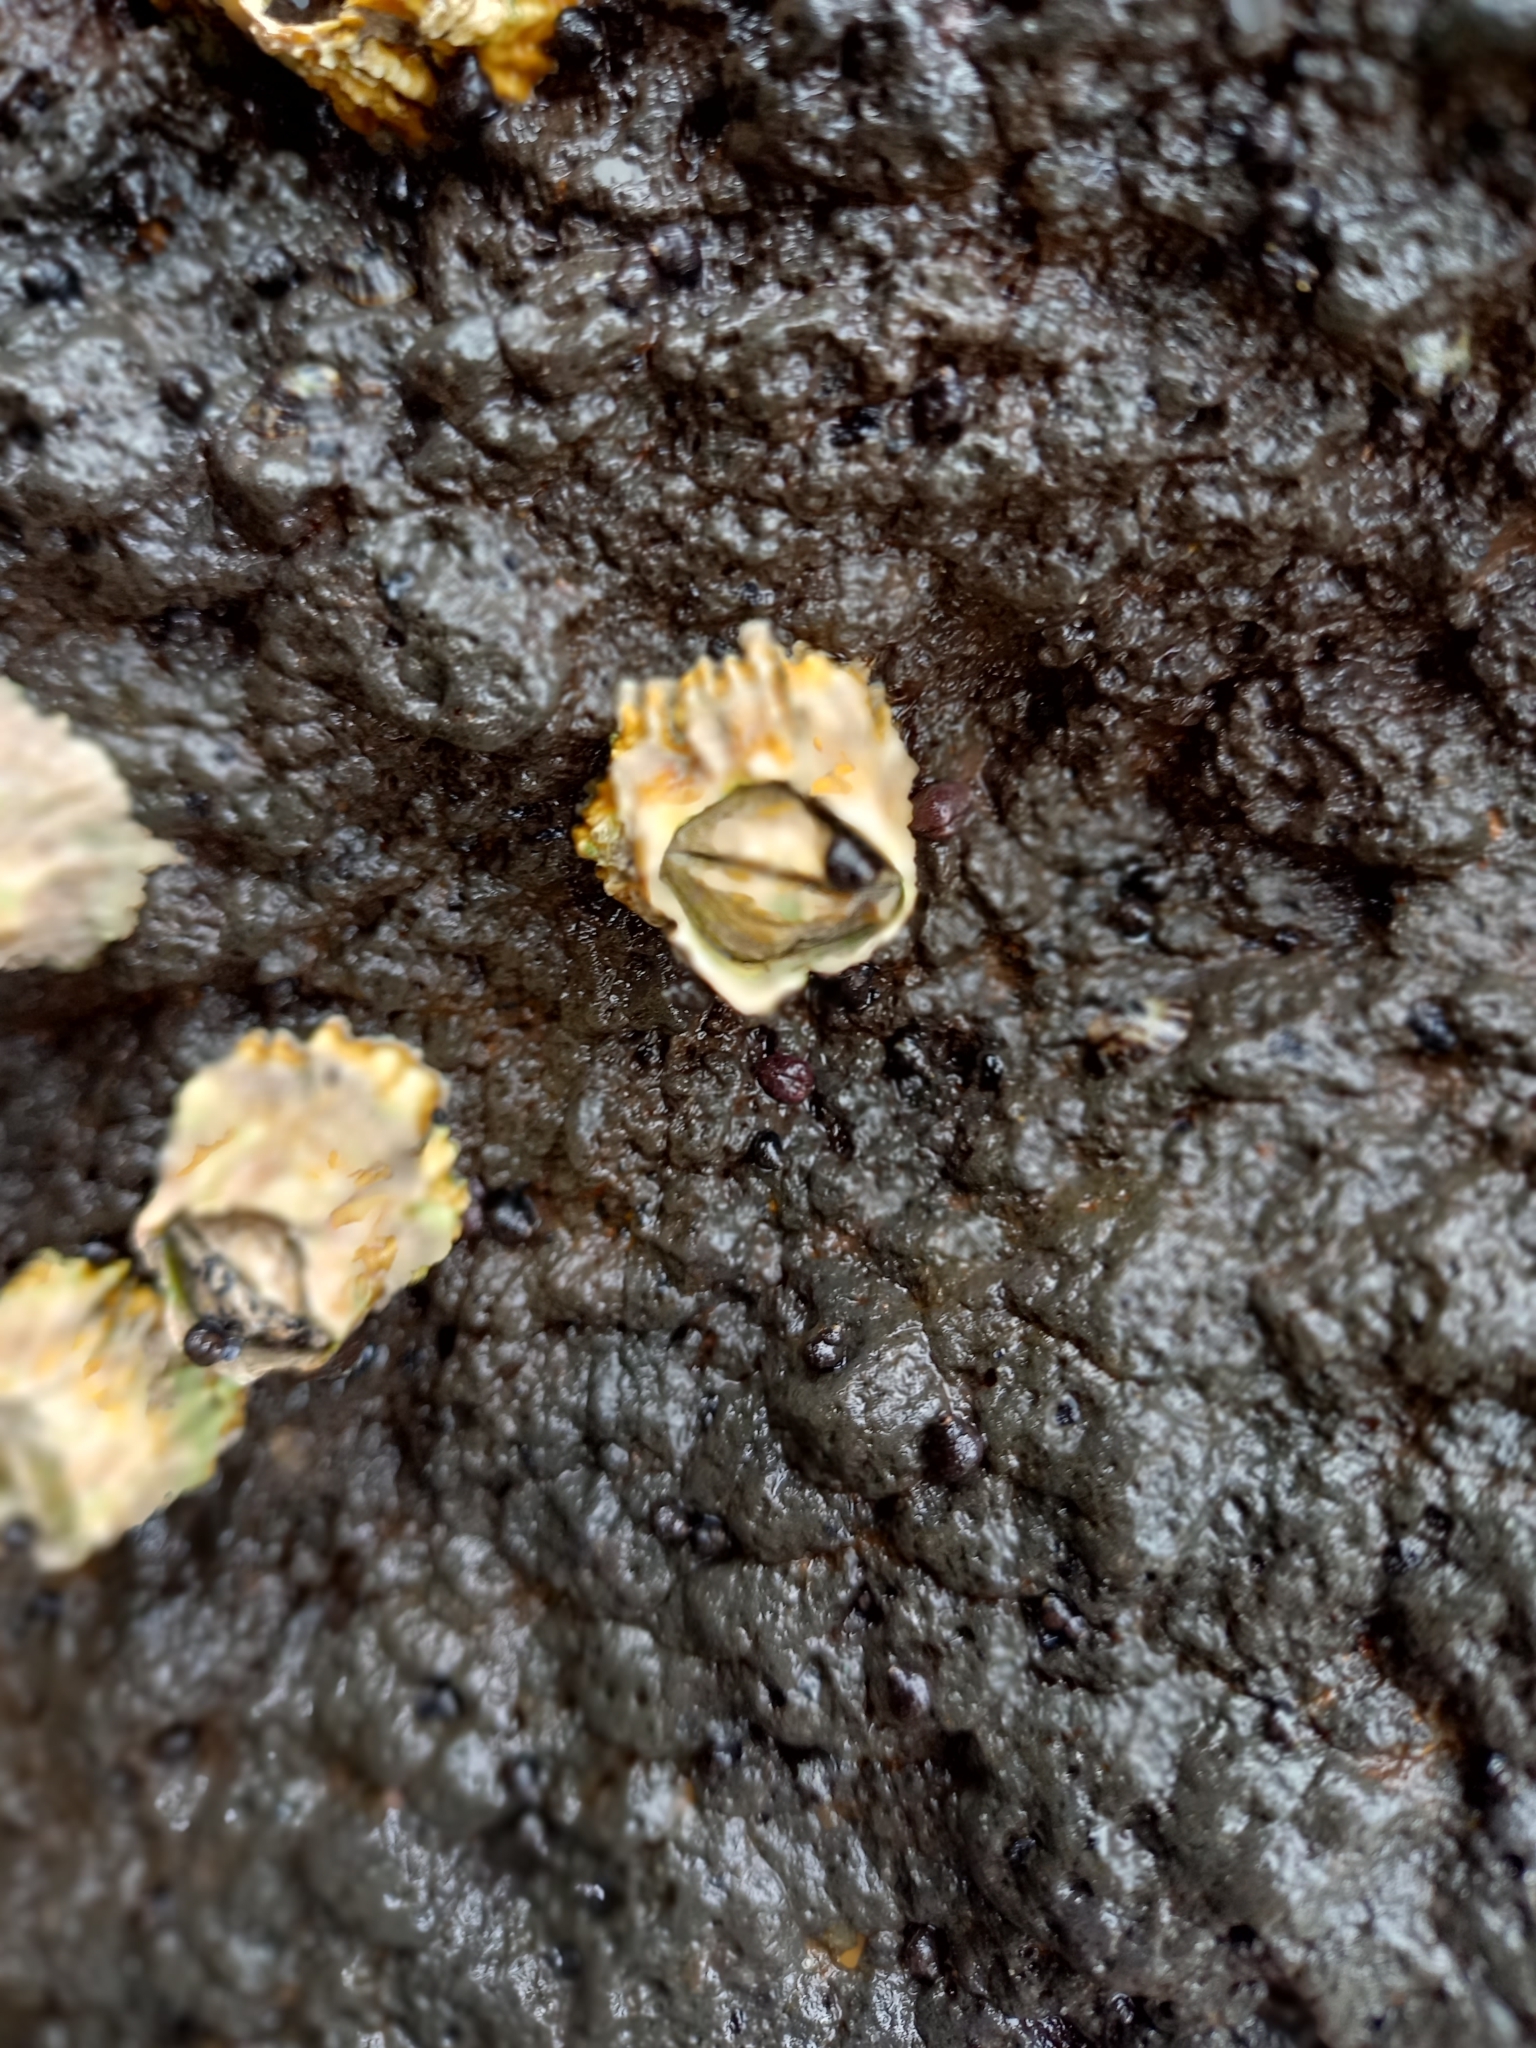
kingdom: Animalia
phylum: Arthropoda
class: Maxillopoda
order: Sessilia
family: Tetraclitidae
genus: Epopella
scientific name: Epopella plicata
